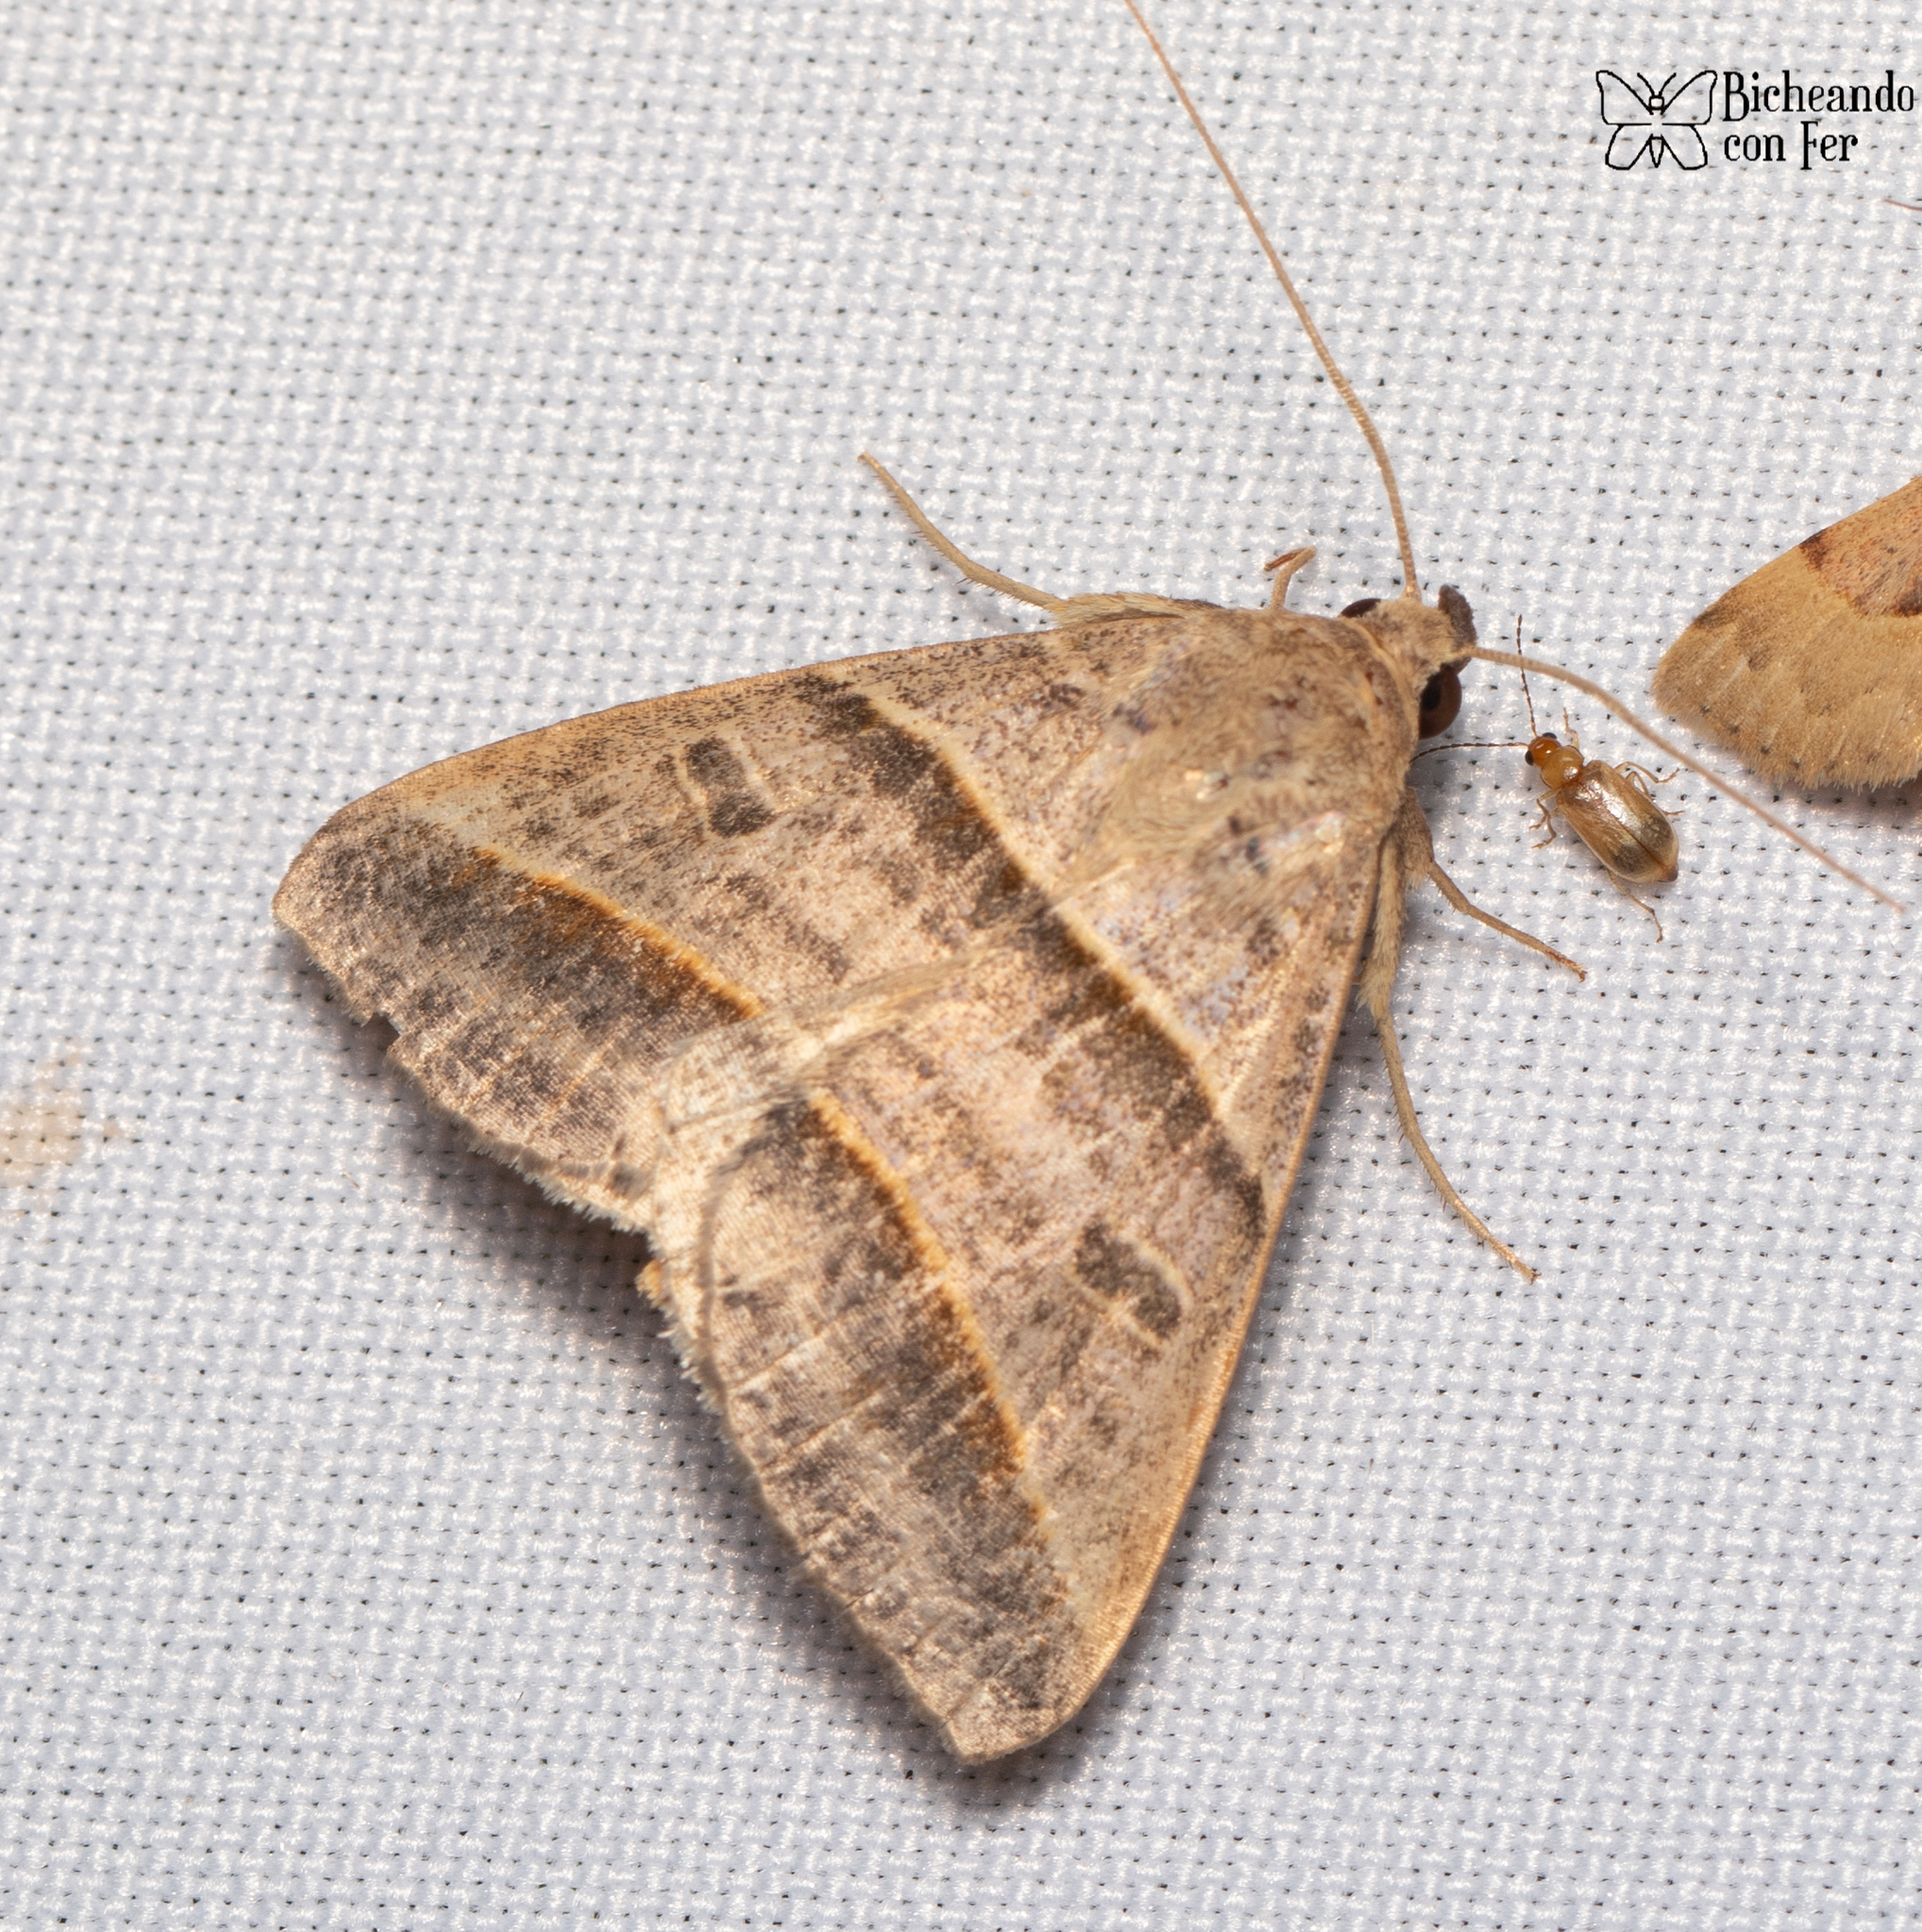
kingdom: Animalia
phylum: Arthropoda
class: Insecta
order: Lepidoptera
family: Erebidae
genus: Ptichodis
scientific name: Ptichodis vinculum
